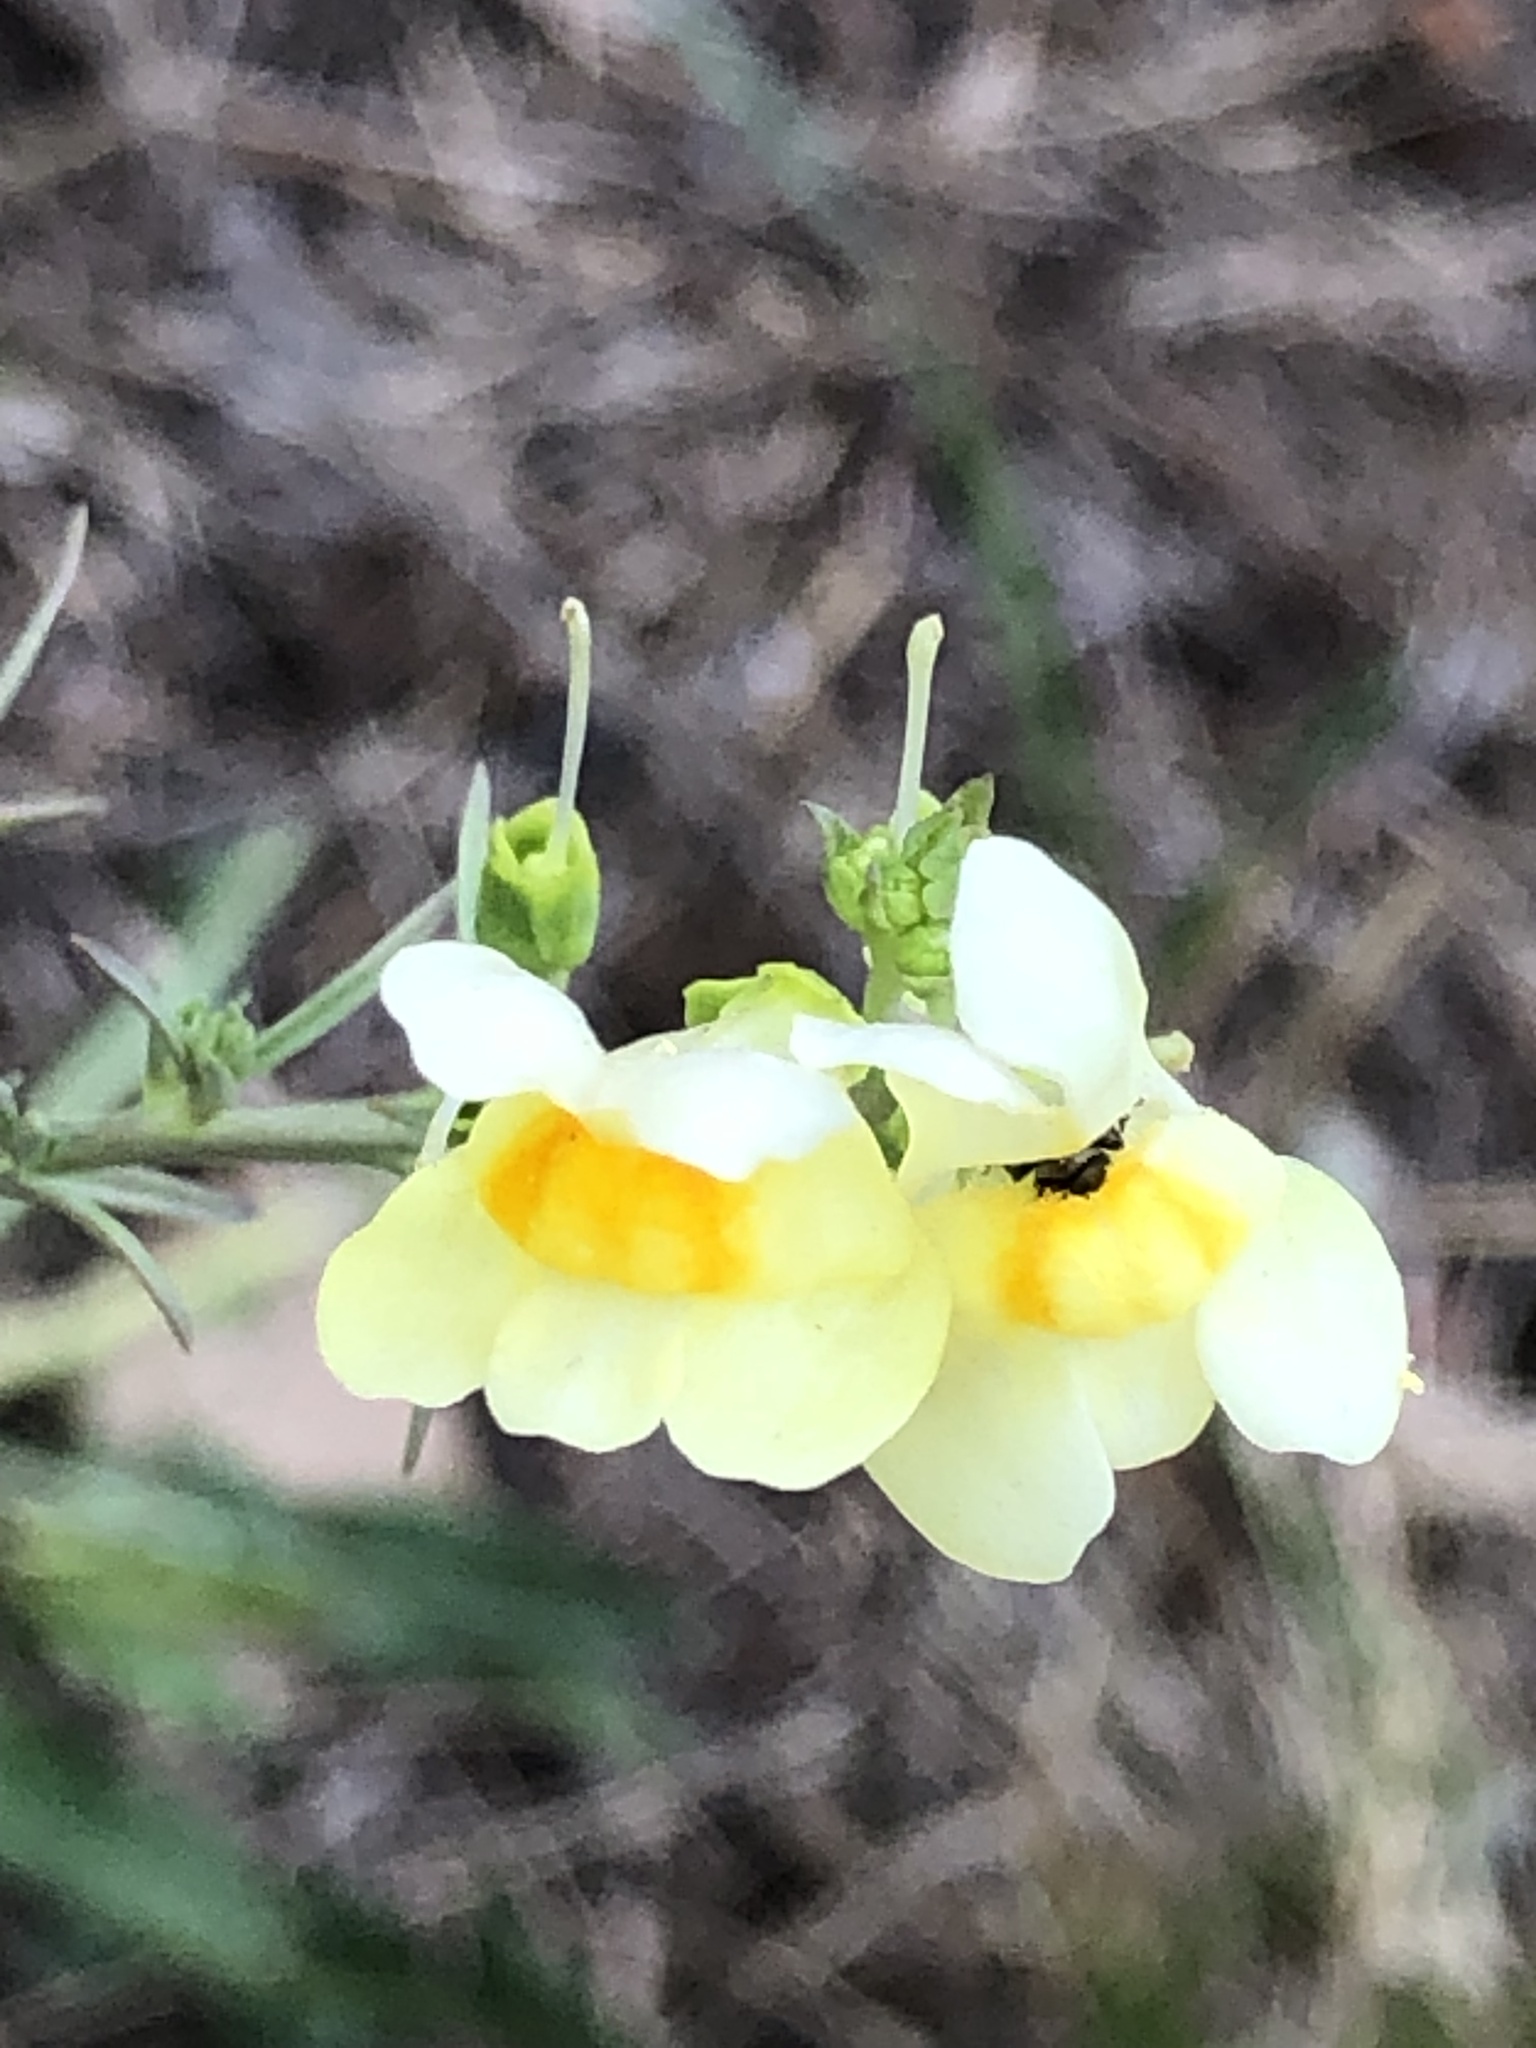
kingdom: Plantae
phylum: Tracheophyta
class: Magnoliopsida
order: Lamiales
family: Plantaginaceae
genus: Linaria
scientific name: Linaria vulgaris
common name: Butter and eggs
